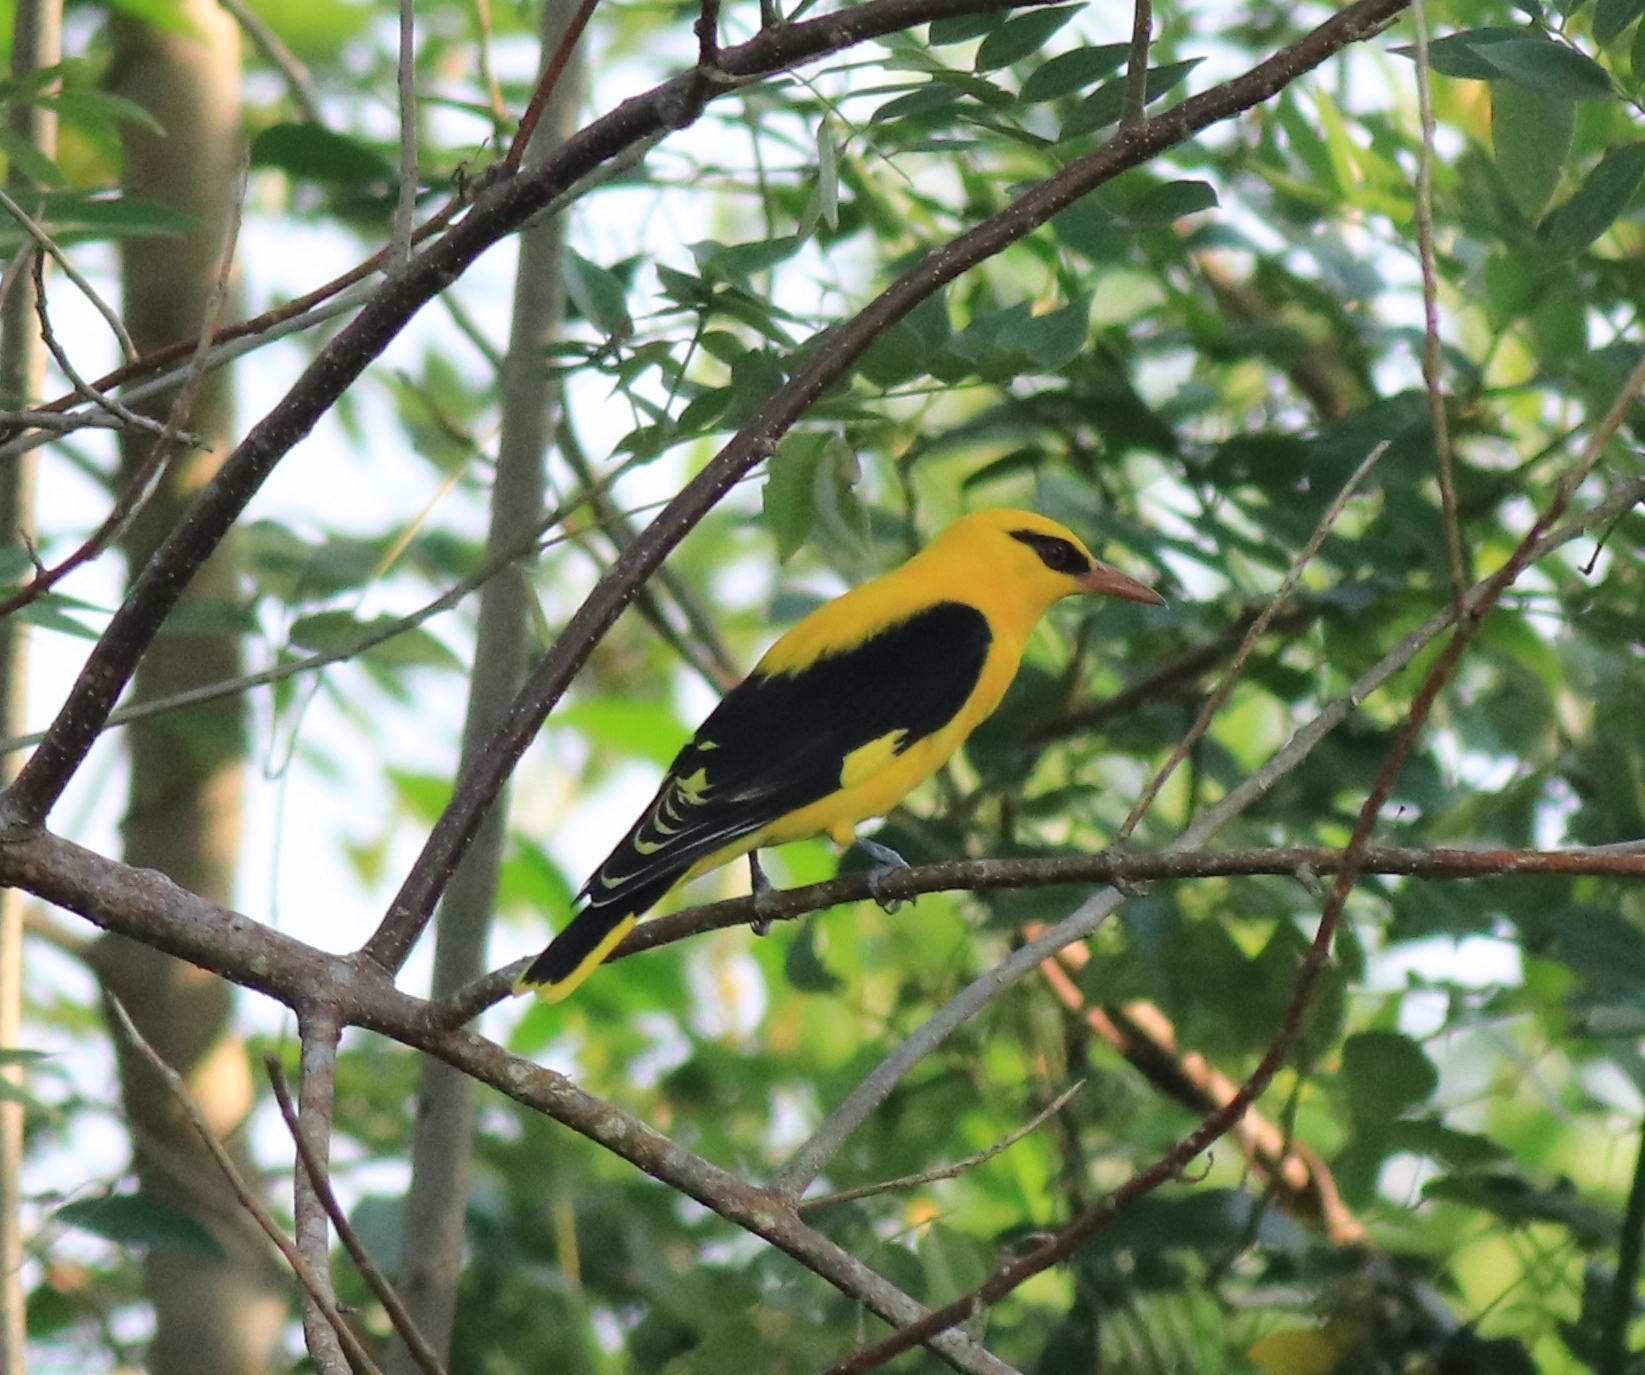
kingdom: Animalia
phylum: Chordata
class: Aves
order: Passeriformes
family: Oriolidae
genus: Oriolus
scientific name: Oriolus kundoo
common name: Indian golden oriole
